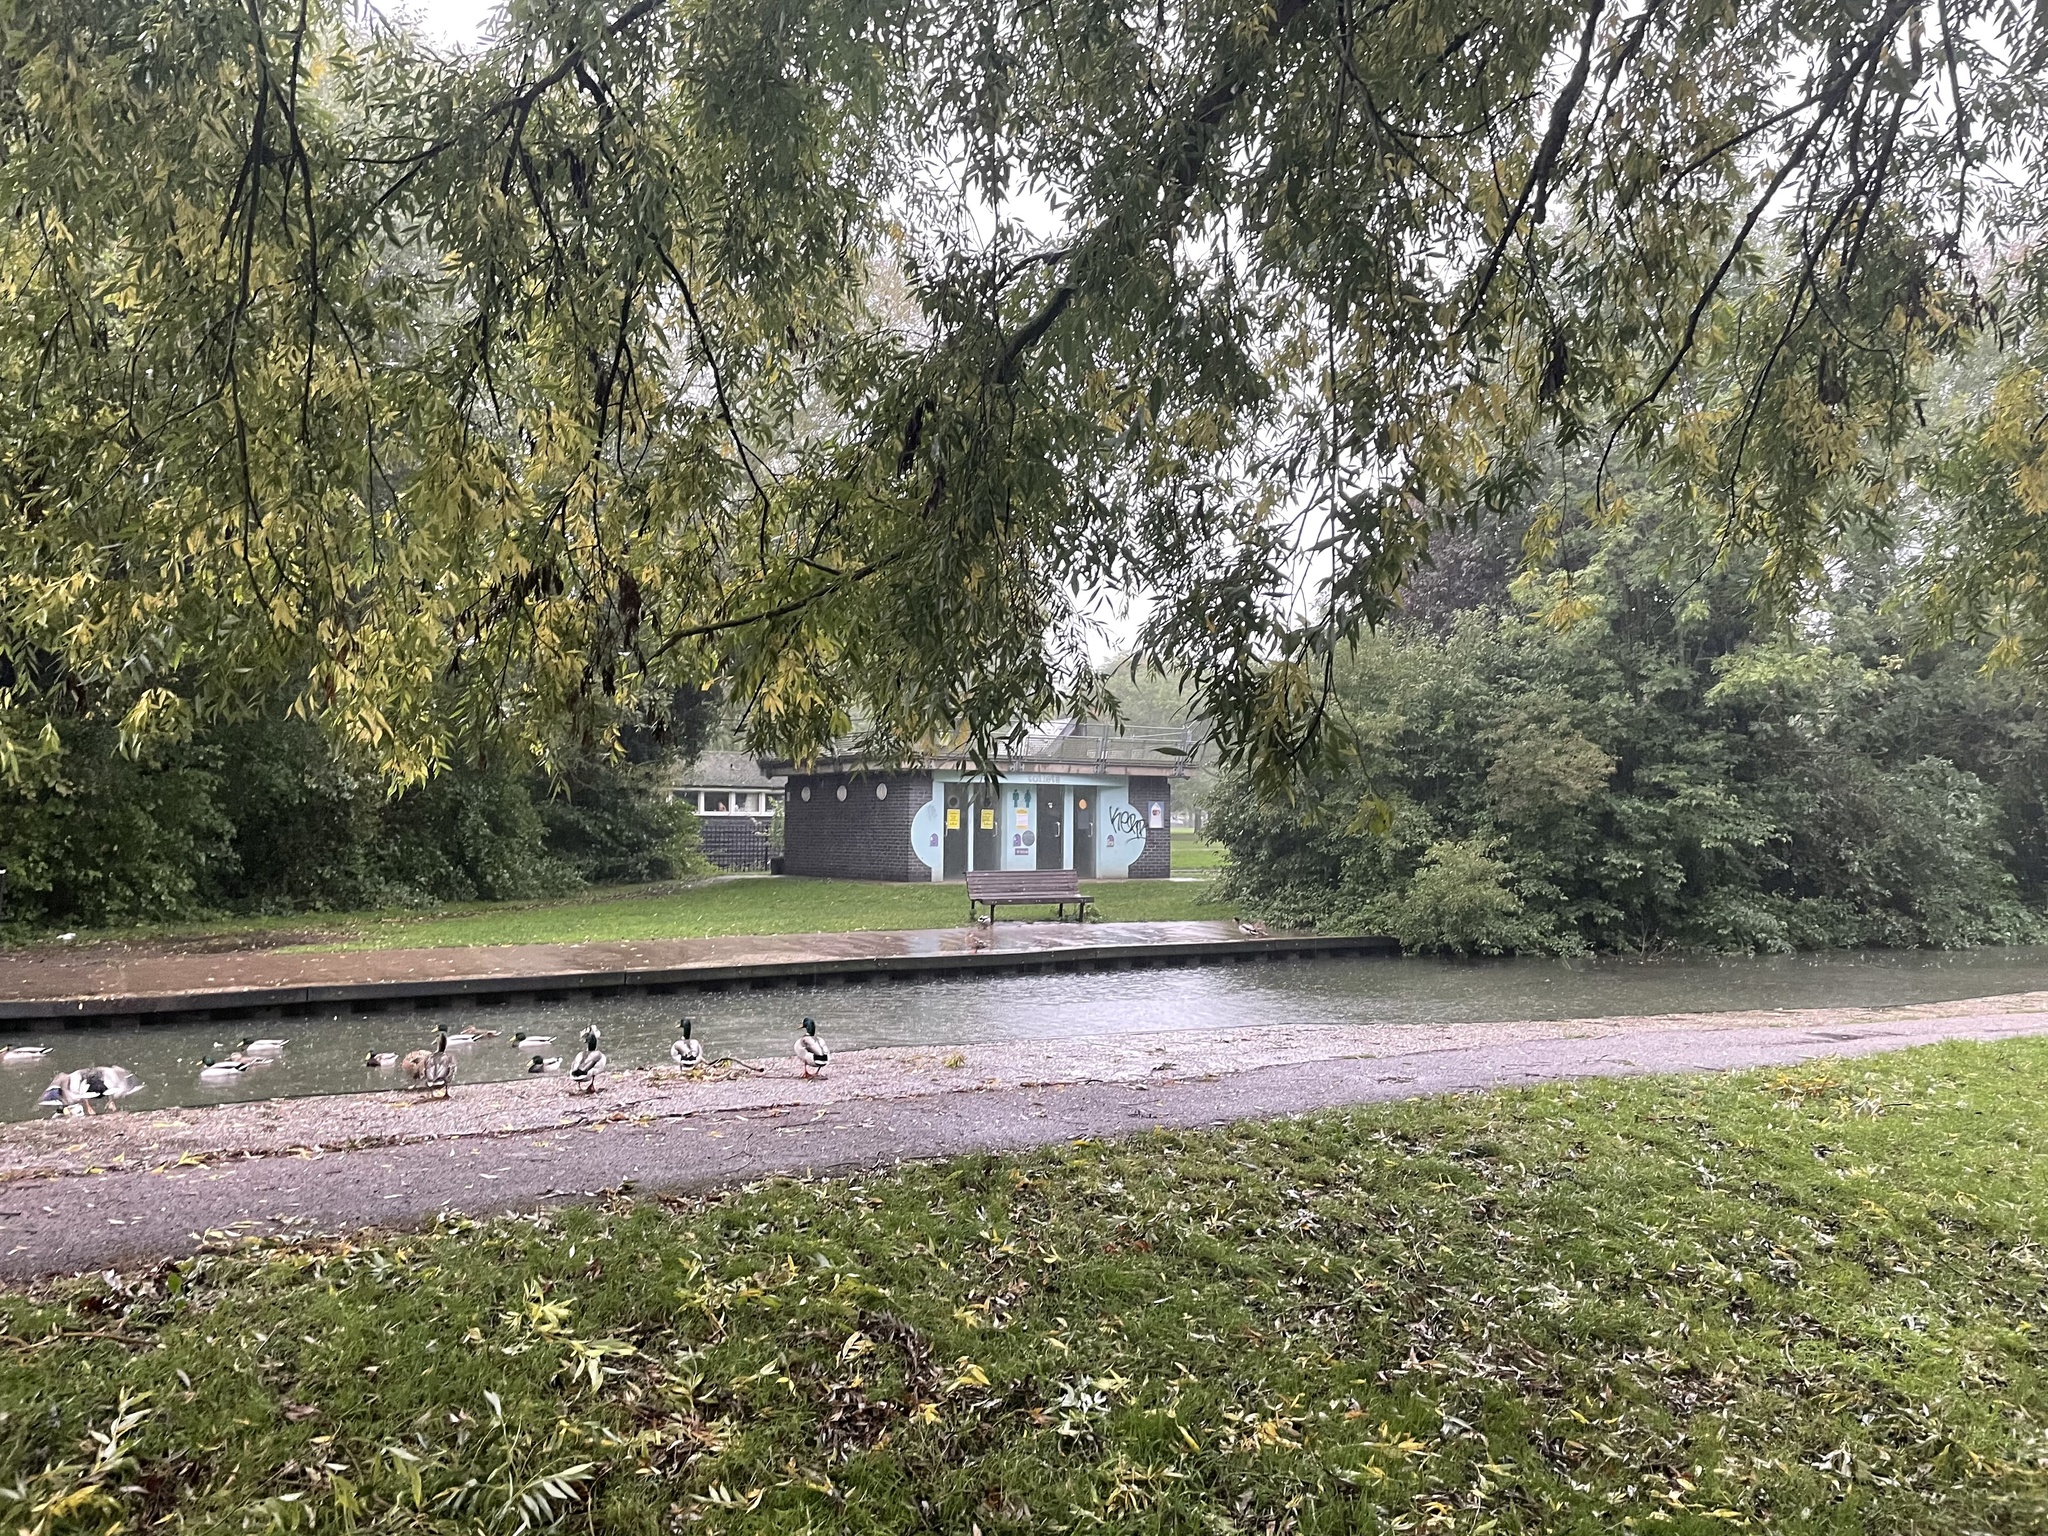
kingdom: Animalia
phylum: Chordata
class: Aves
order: Anseriformes
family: Anatidae
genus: Anas
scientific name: Anas platyrhynchos
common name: Mallard
